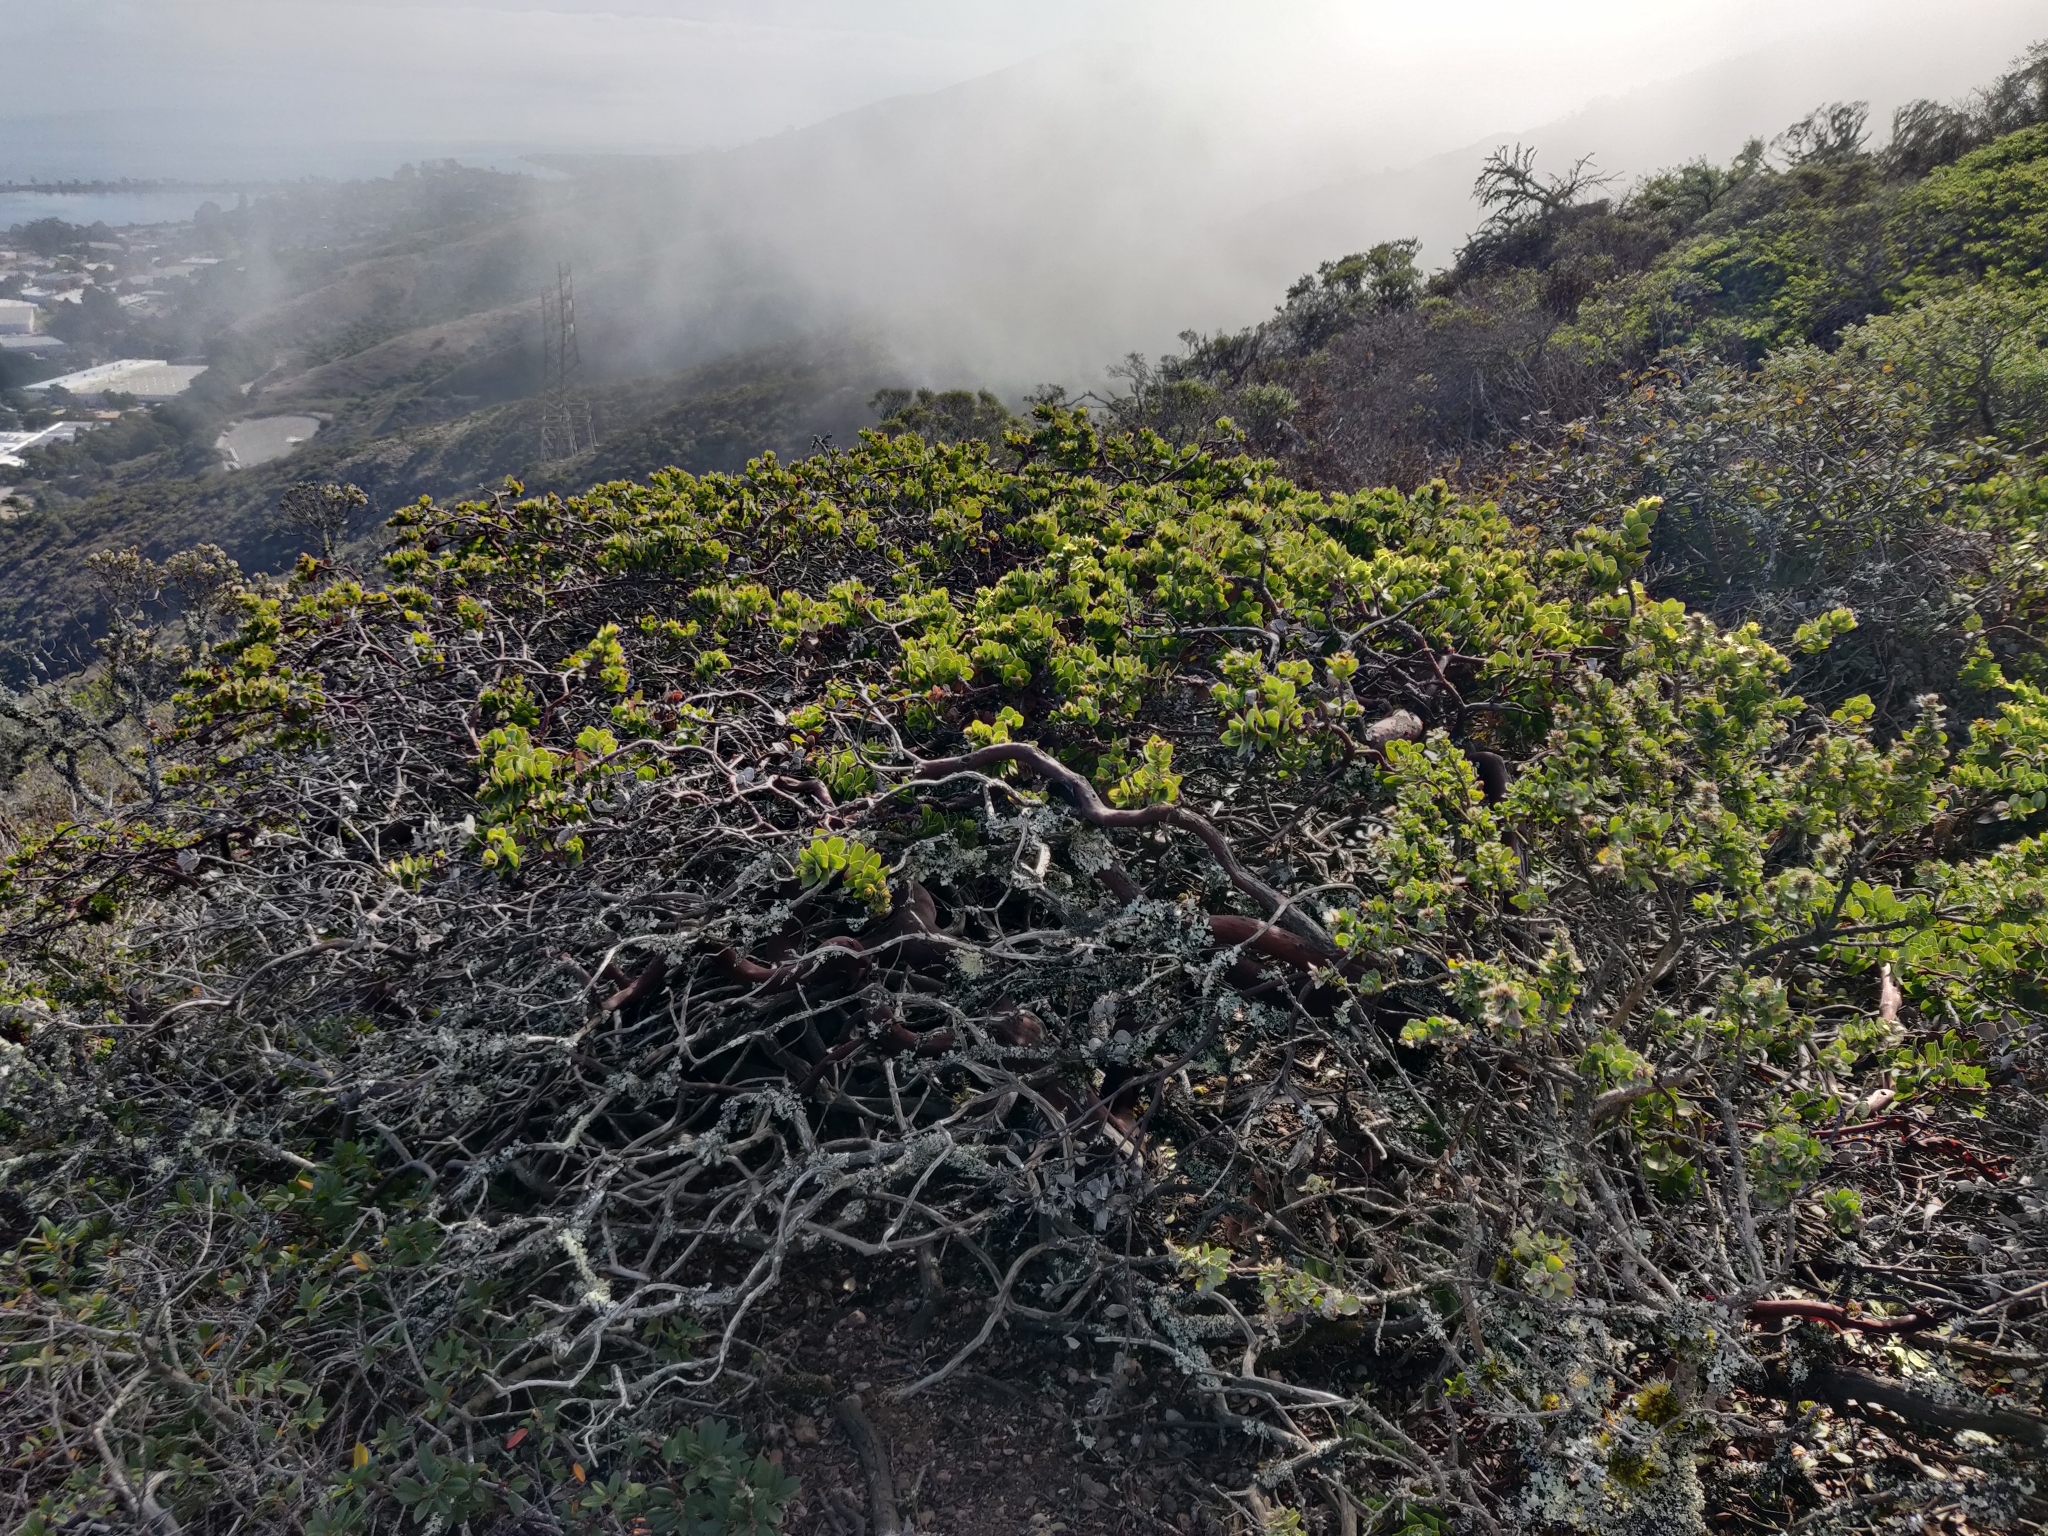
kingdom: Plantae
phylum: Tracheophyta
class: Magnoliopsida
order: Ericales
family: Ericaceae
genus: Arctostaphylos
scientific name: Arctostaphylos imbricata
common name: San bruno mountain manzanita
